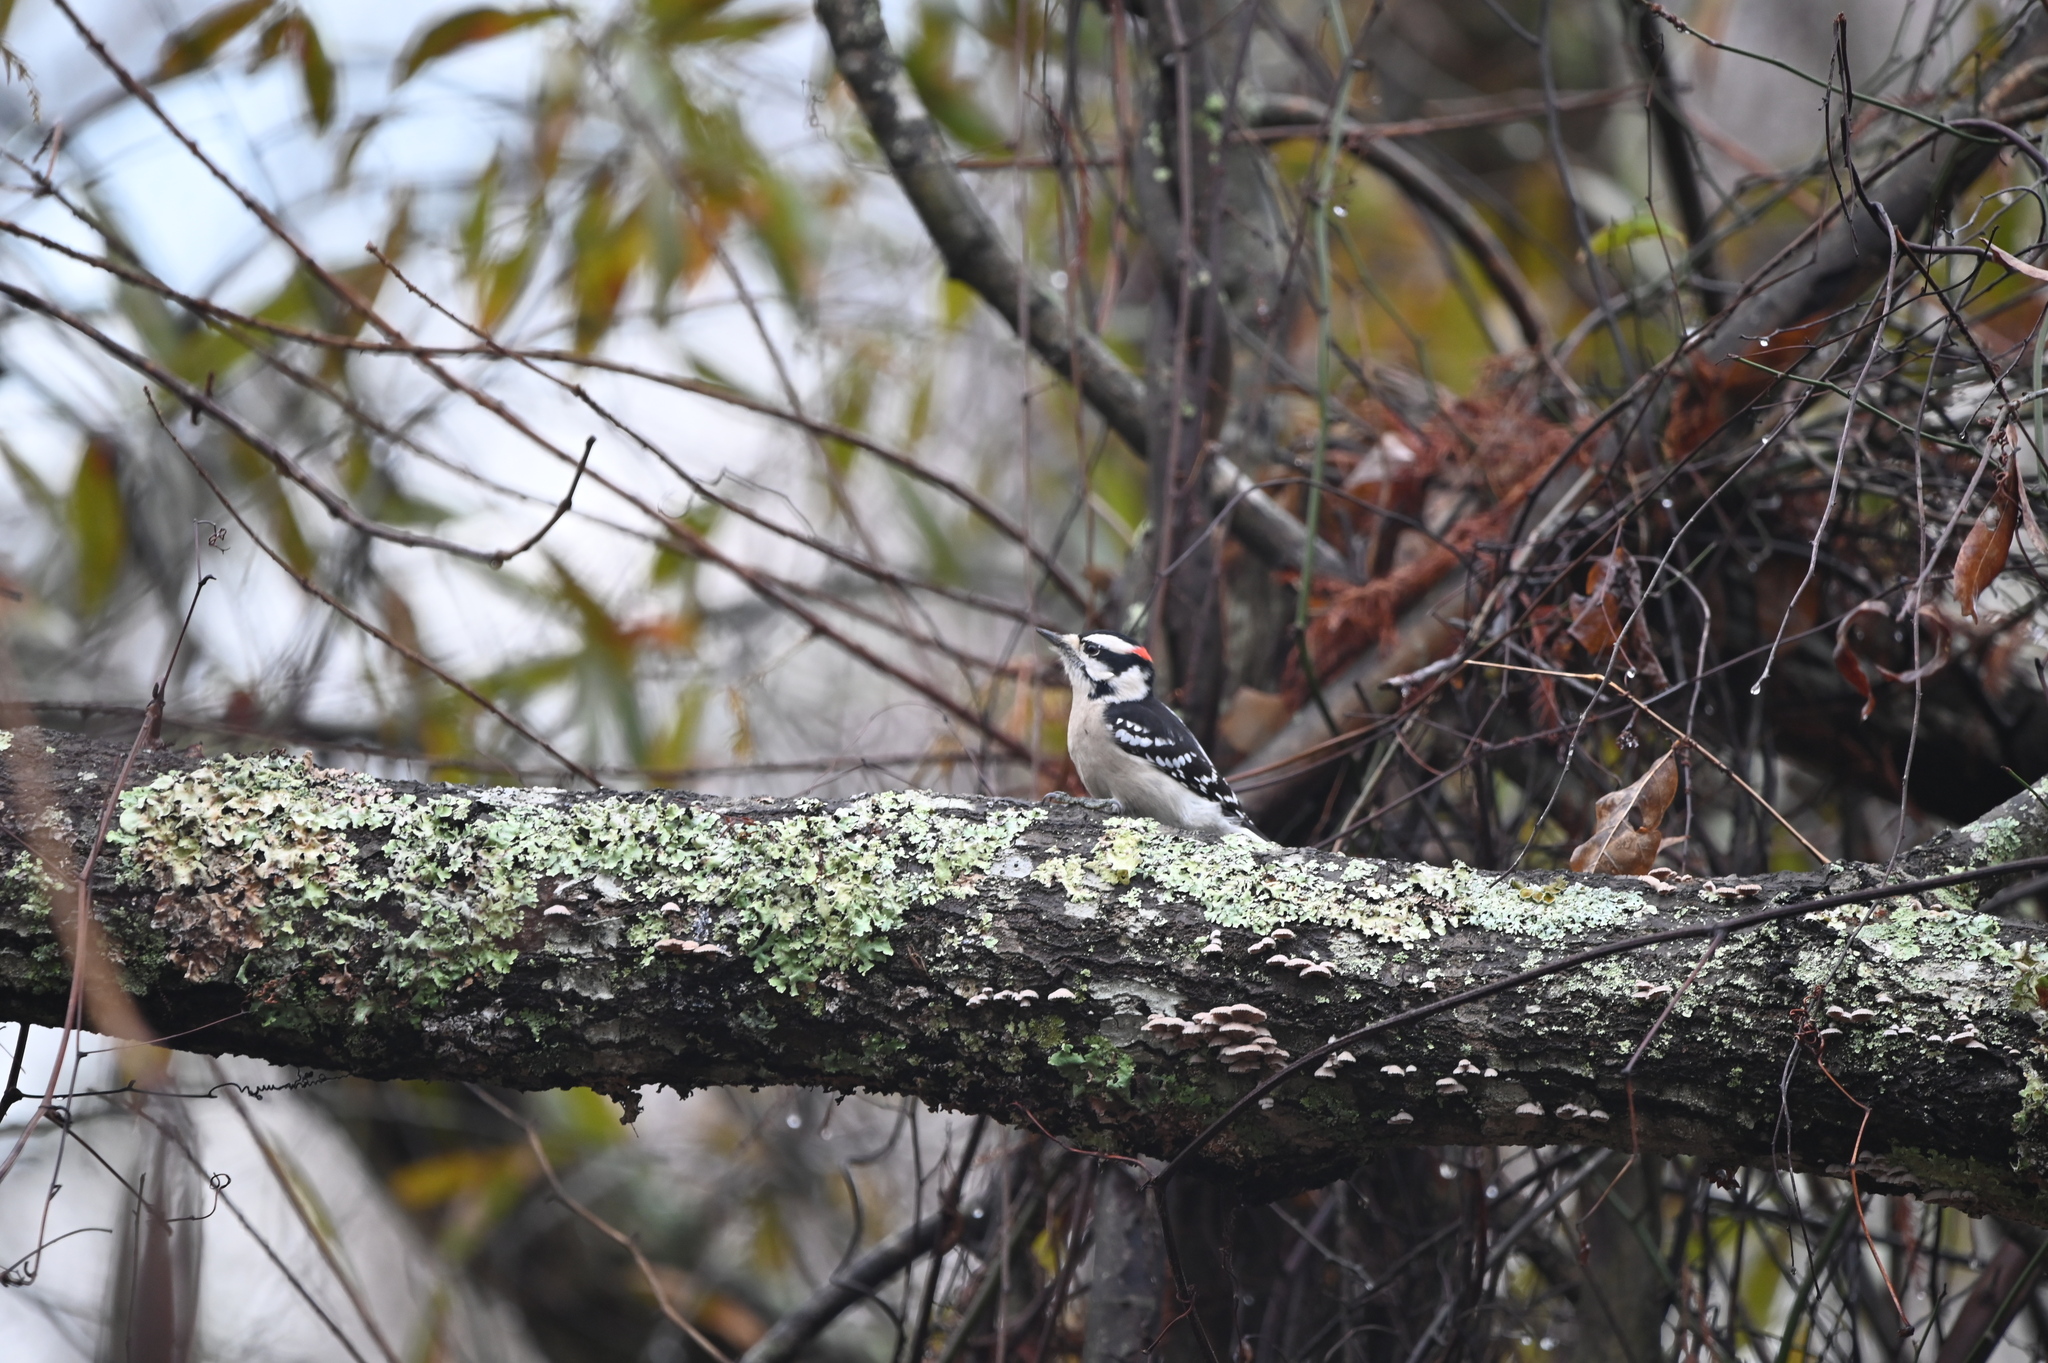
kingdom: Animalia
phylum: Chordata
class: Aves
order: Piciformes
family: Picidae
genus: Dryobates
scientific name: Dryobates pubescens
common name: Downy woodpecker
